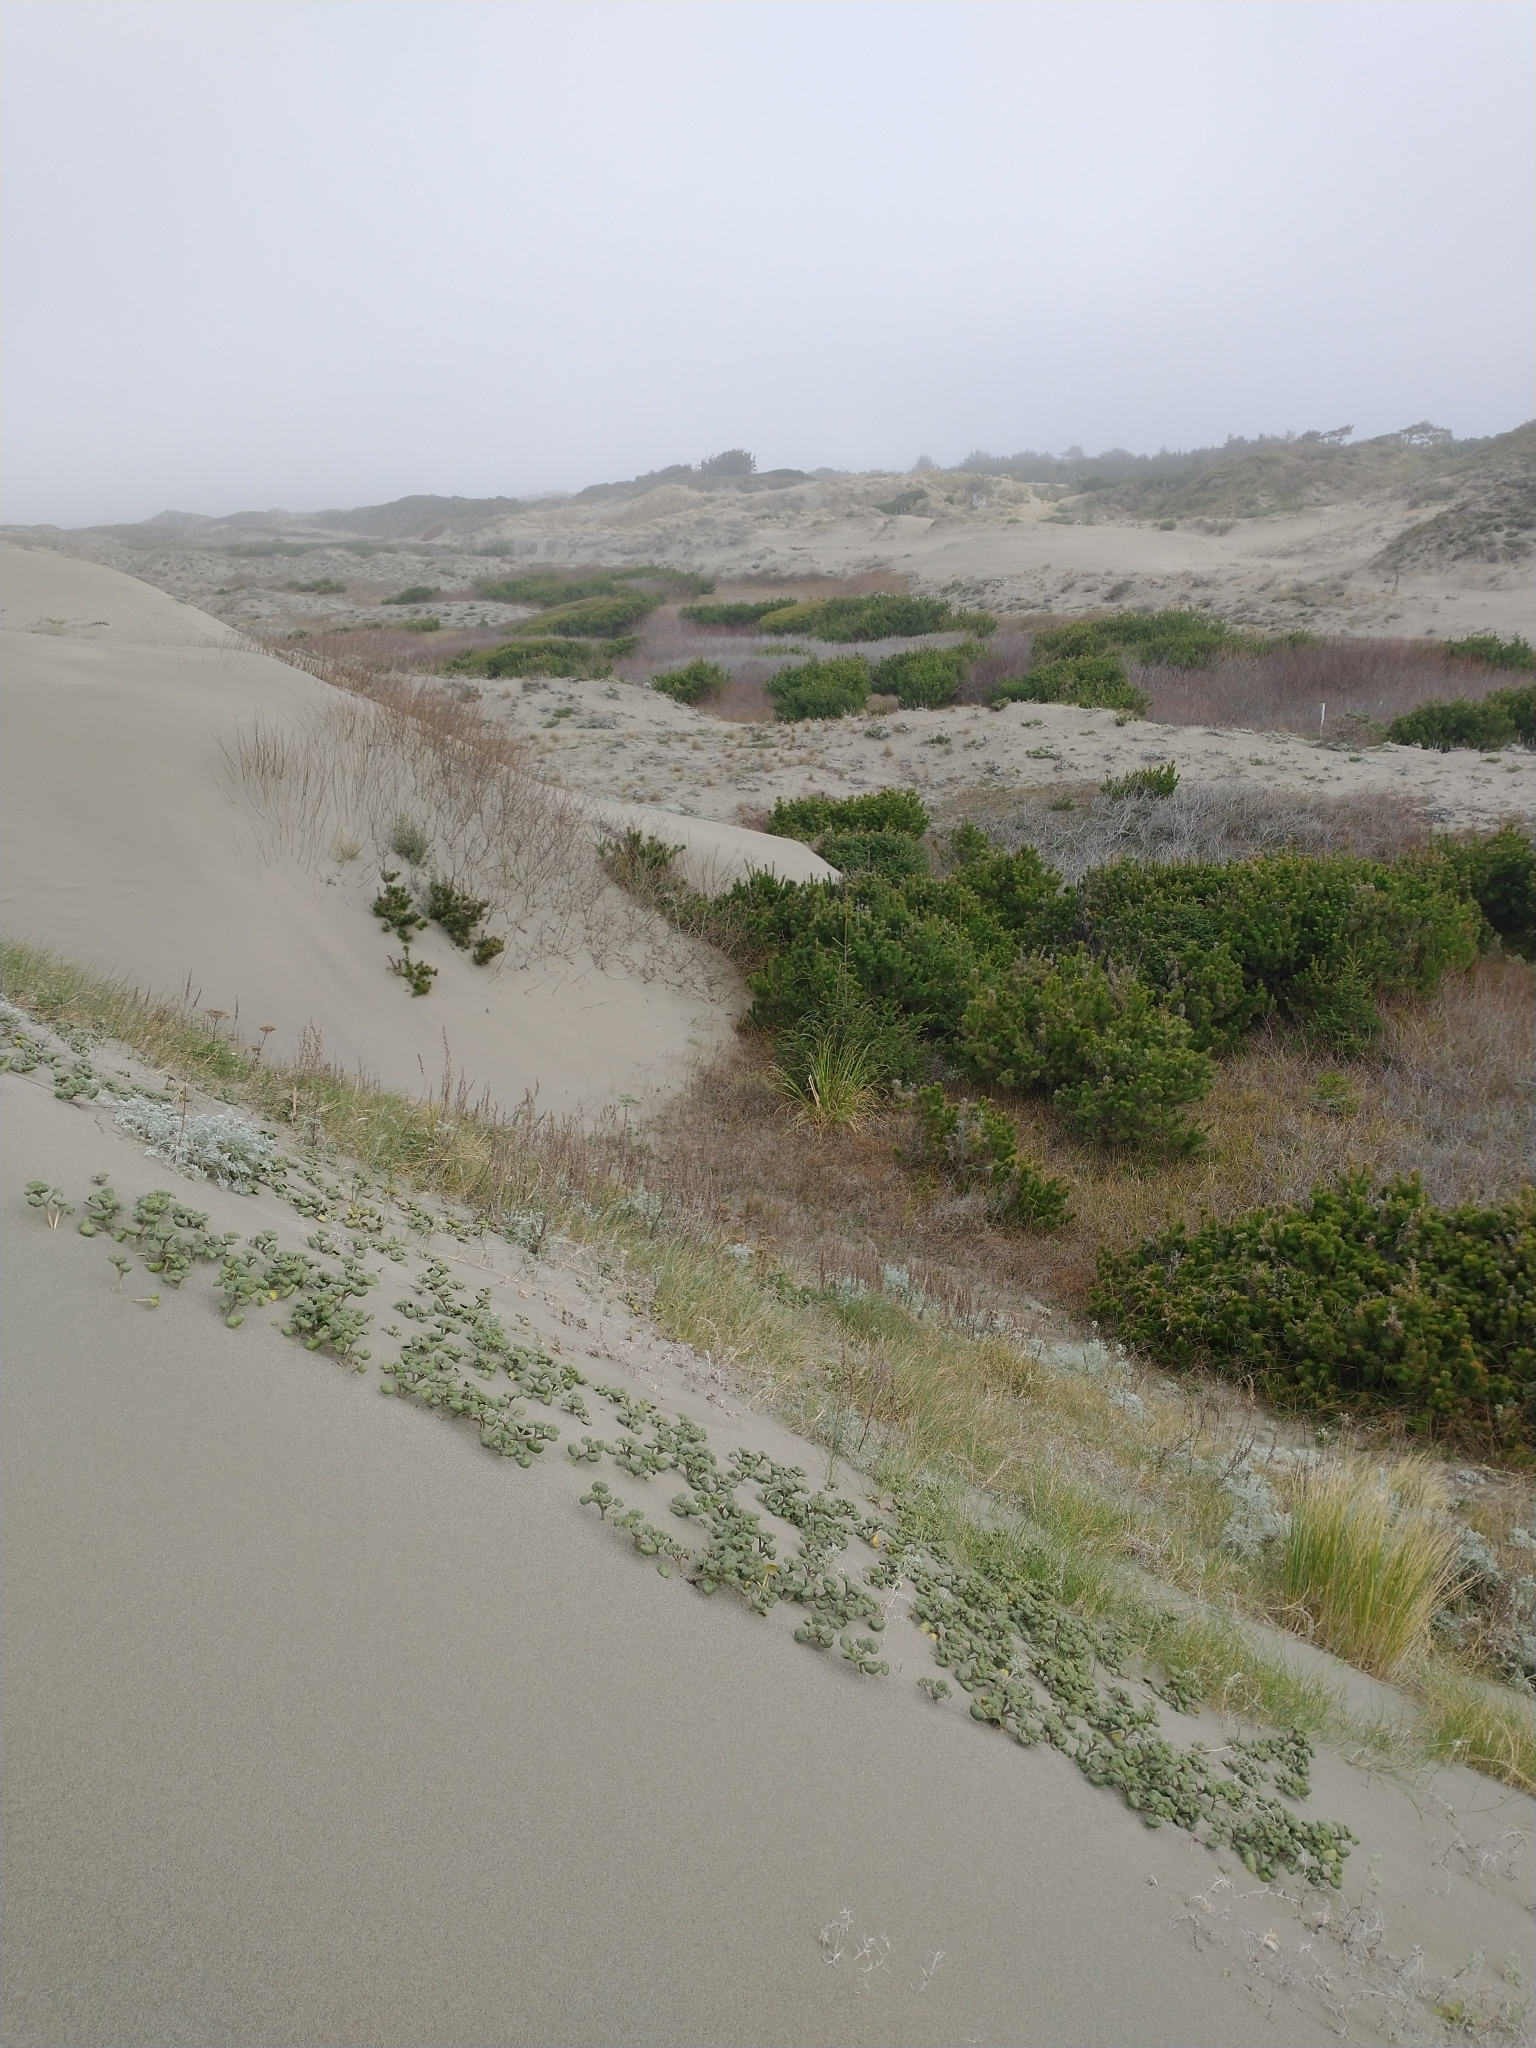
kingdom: Plantae
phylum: Tracheophyta
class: Pinopsida
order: Pinales
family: Pinaceae
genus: Pinus
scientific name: Pinus contorta
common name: Lodgepole pine
